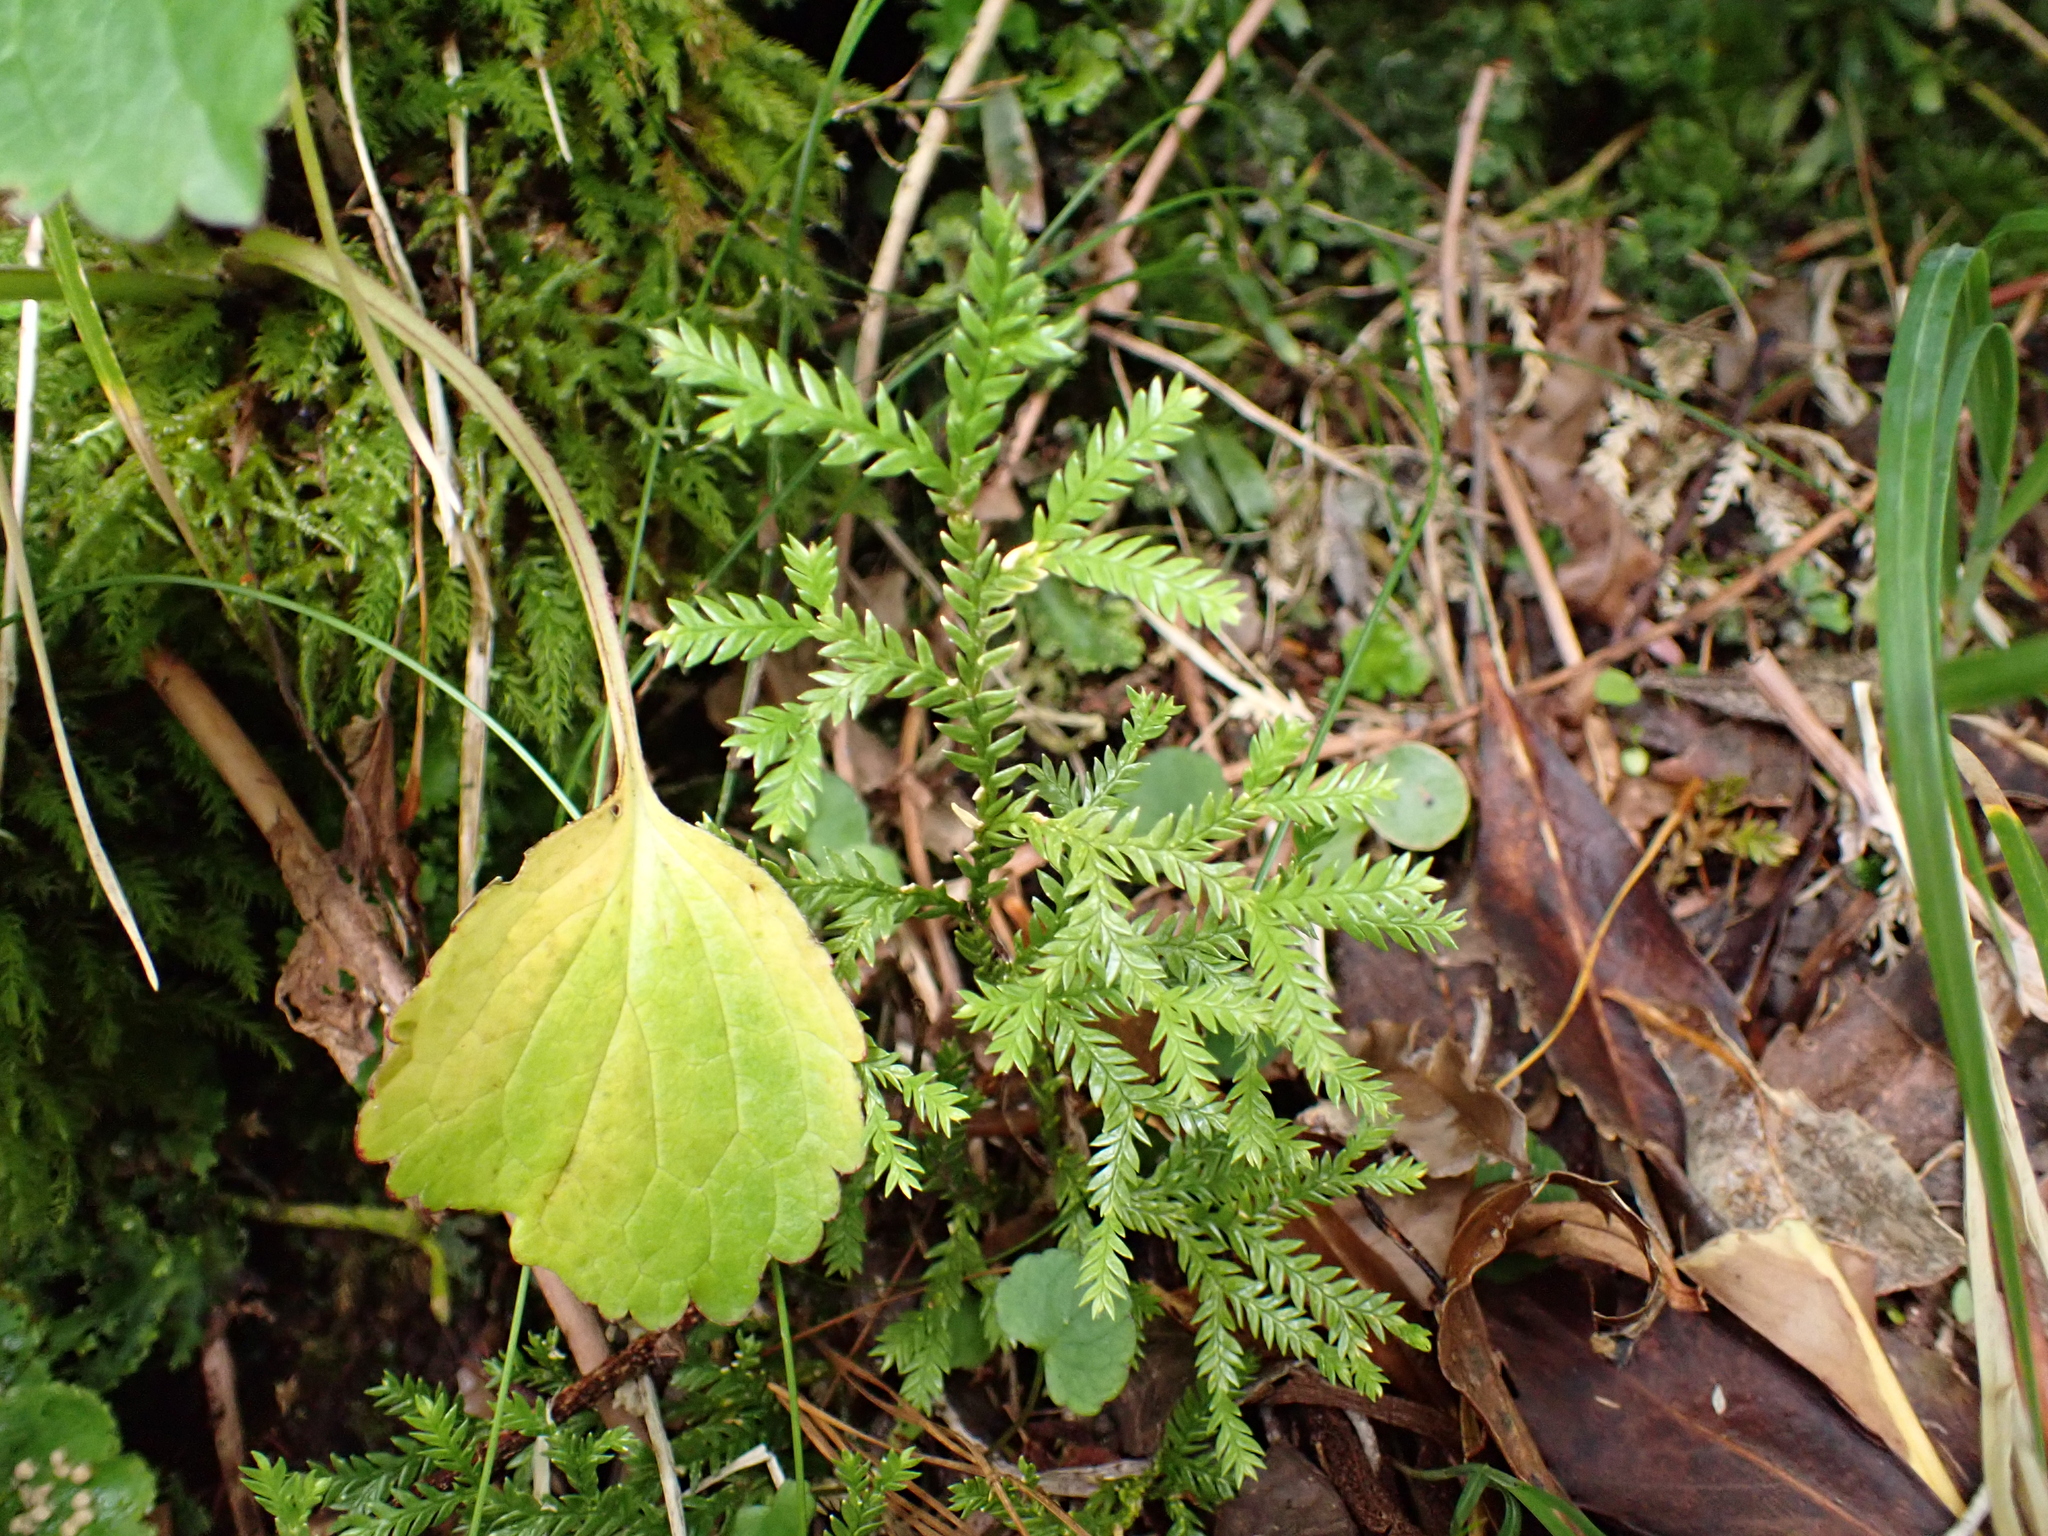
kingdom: Plantae
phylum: Tracheophyta
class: Lycopodiopsida
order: Lycopodiales
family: Lycopodiaceae
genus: Diphasium
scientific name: Diphasium scariosum
